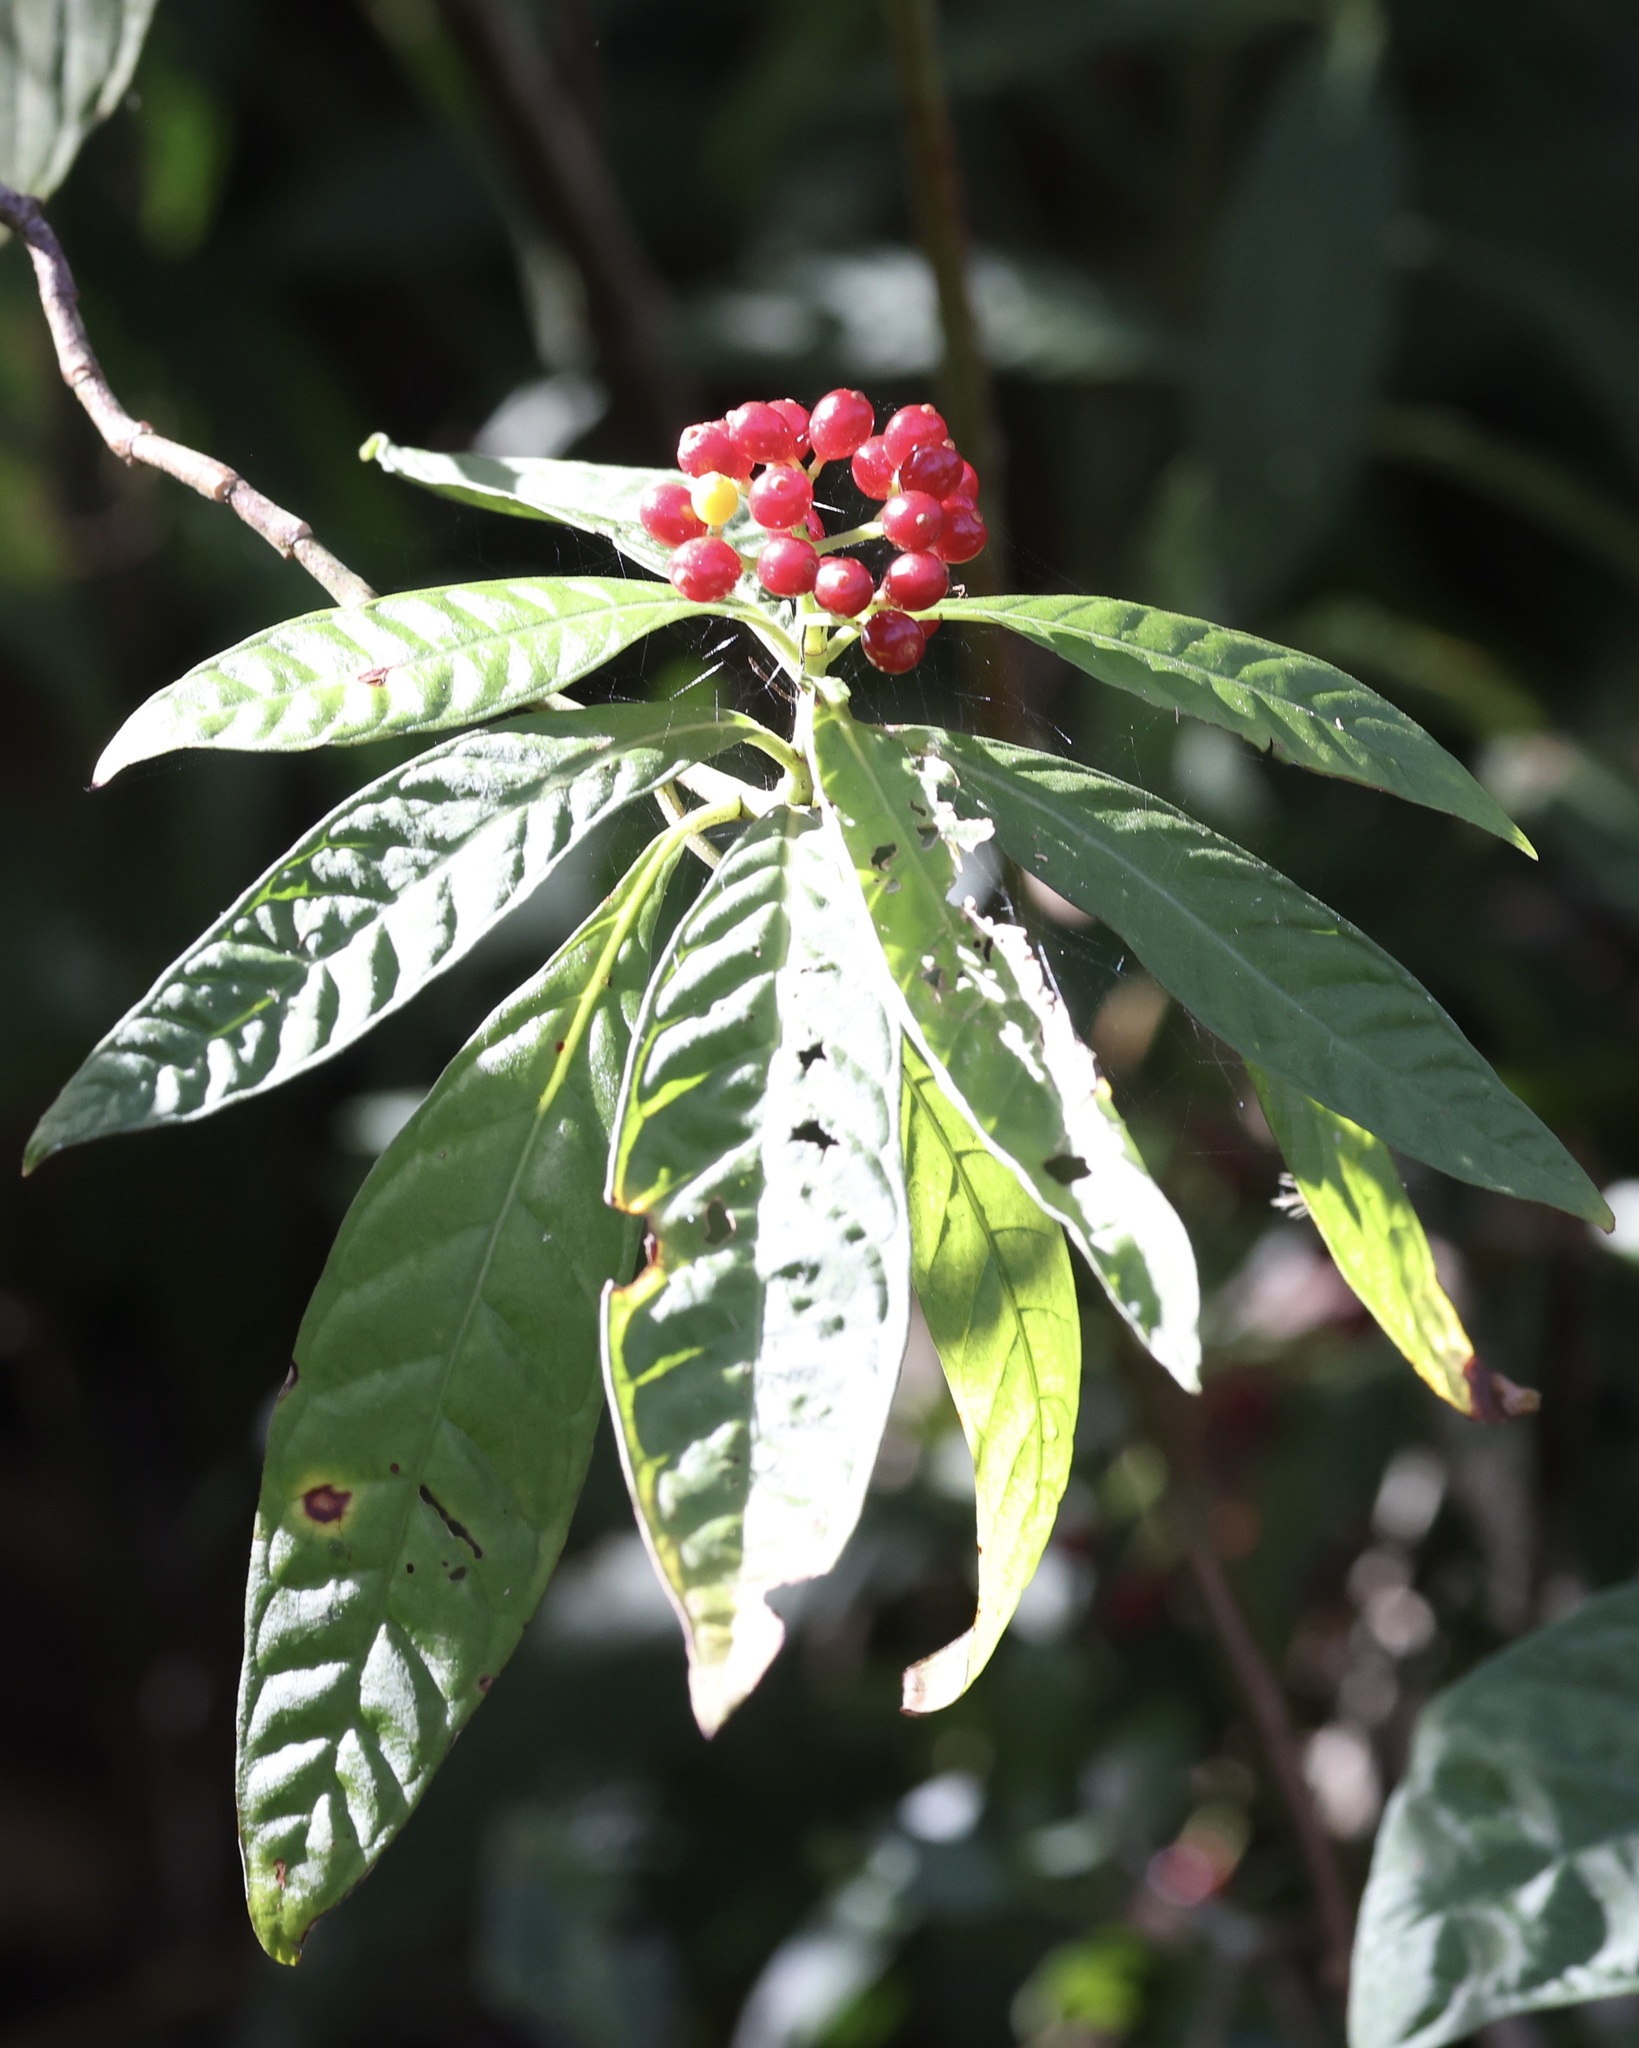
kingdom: Plantae
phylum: Tracheophyta
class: Magnoliopsida
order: Gentianales
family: Rubiaceae
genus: Psychotria
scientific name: Psychotria nervosa
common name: Bastard cankerberry
